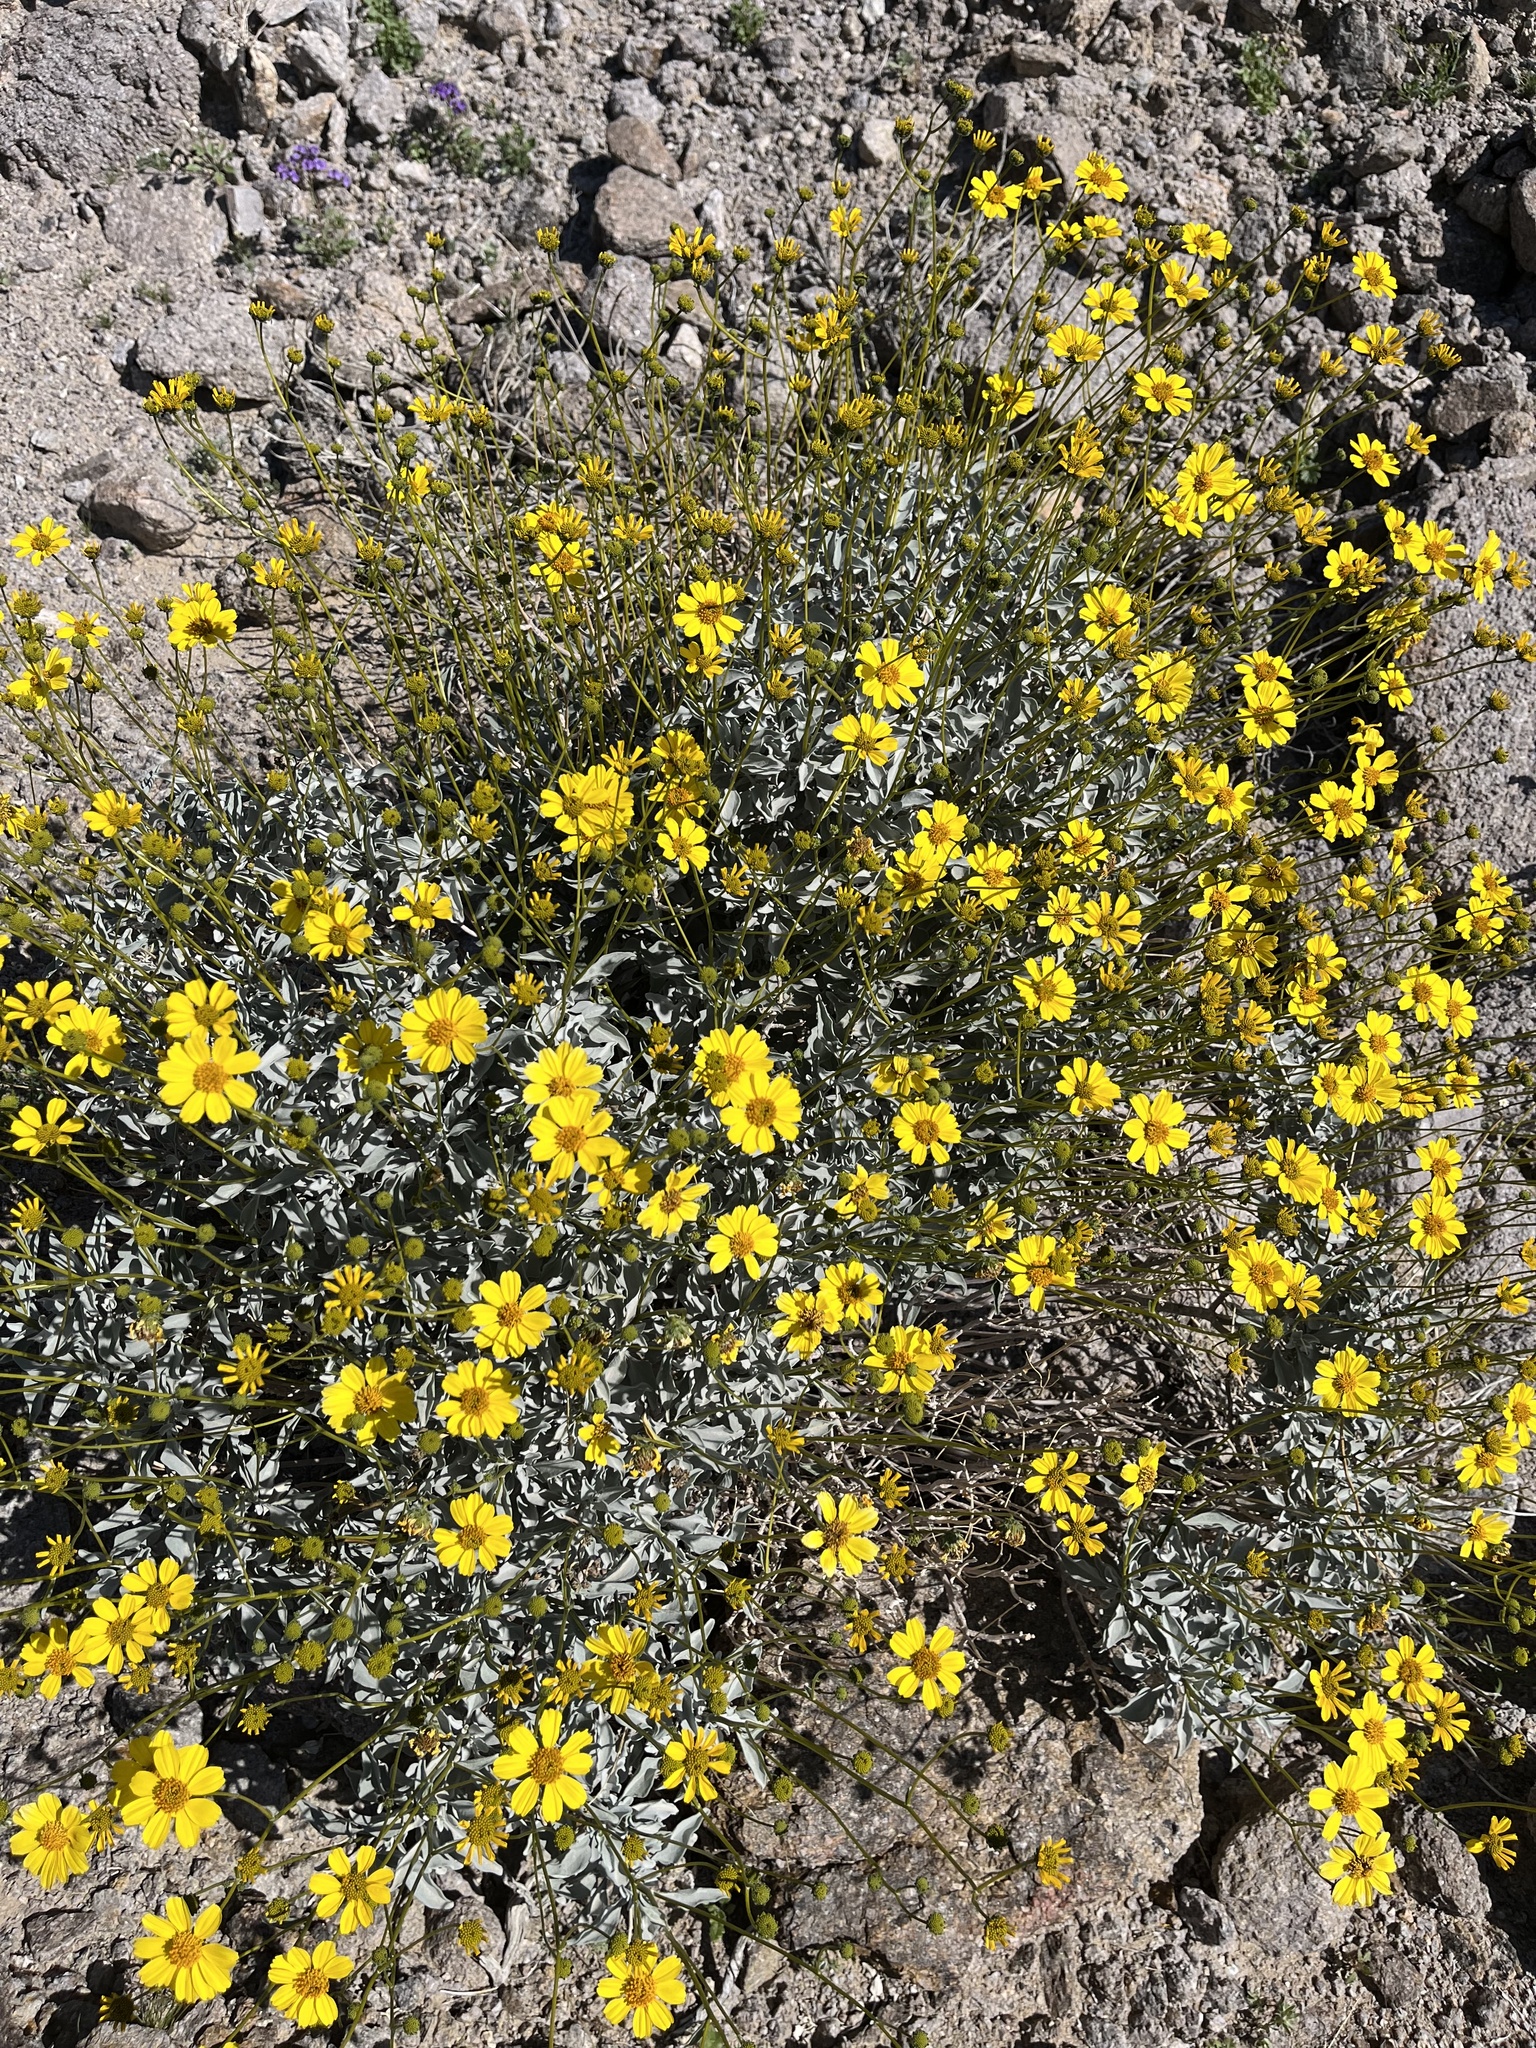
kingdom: Plantae
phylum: Tracheophyta
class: Magnoliopsida
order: Asterales
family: Asteraceae
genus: Encelia
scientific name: Encelia farinosa
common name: Brittlebush
